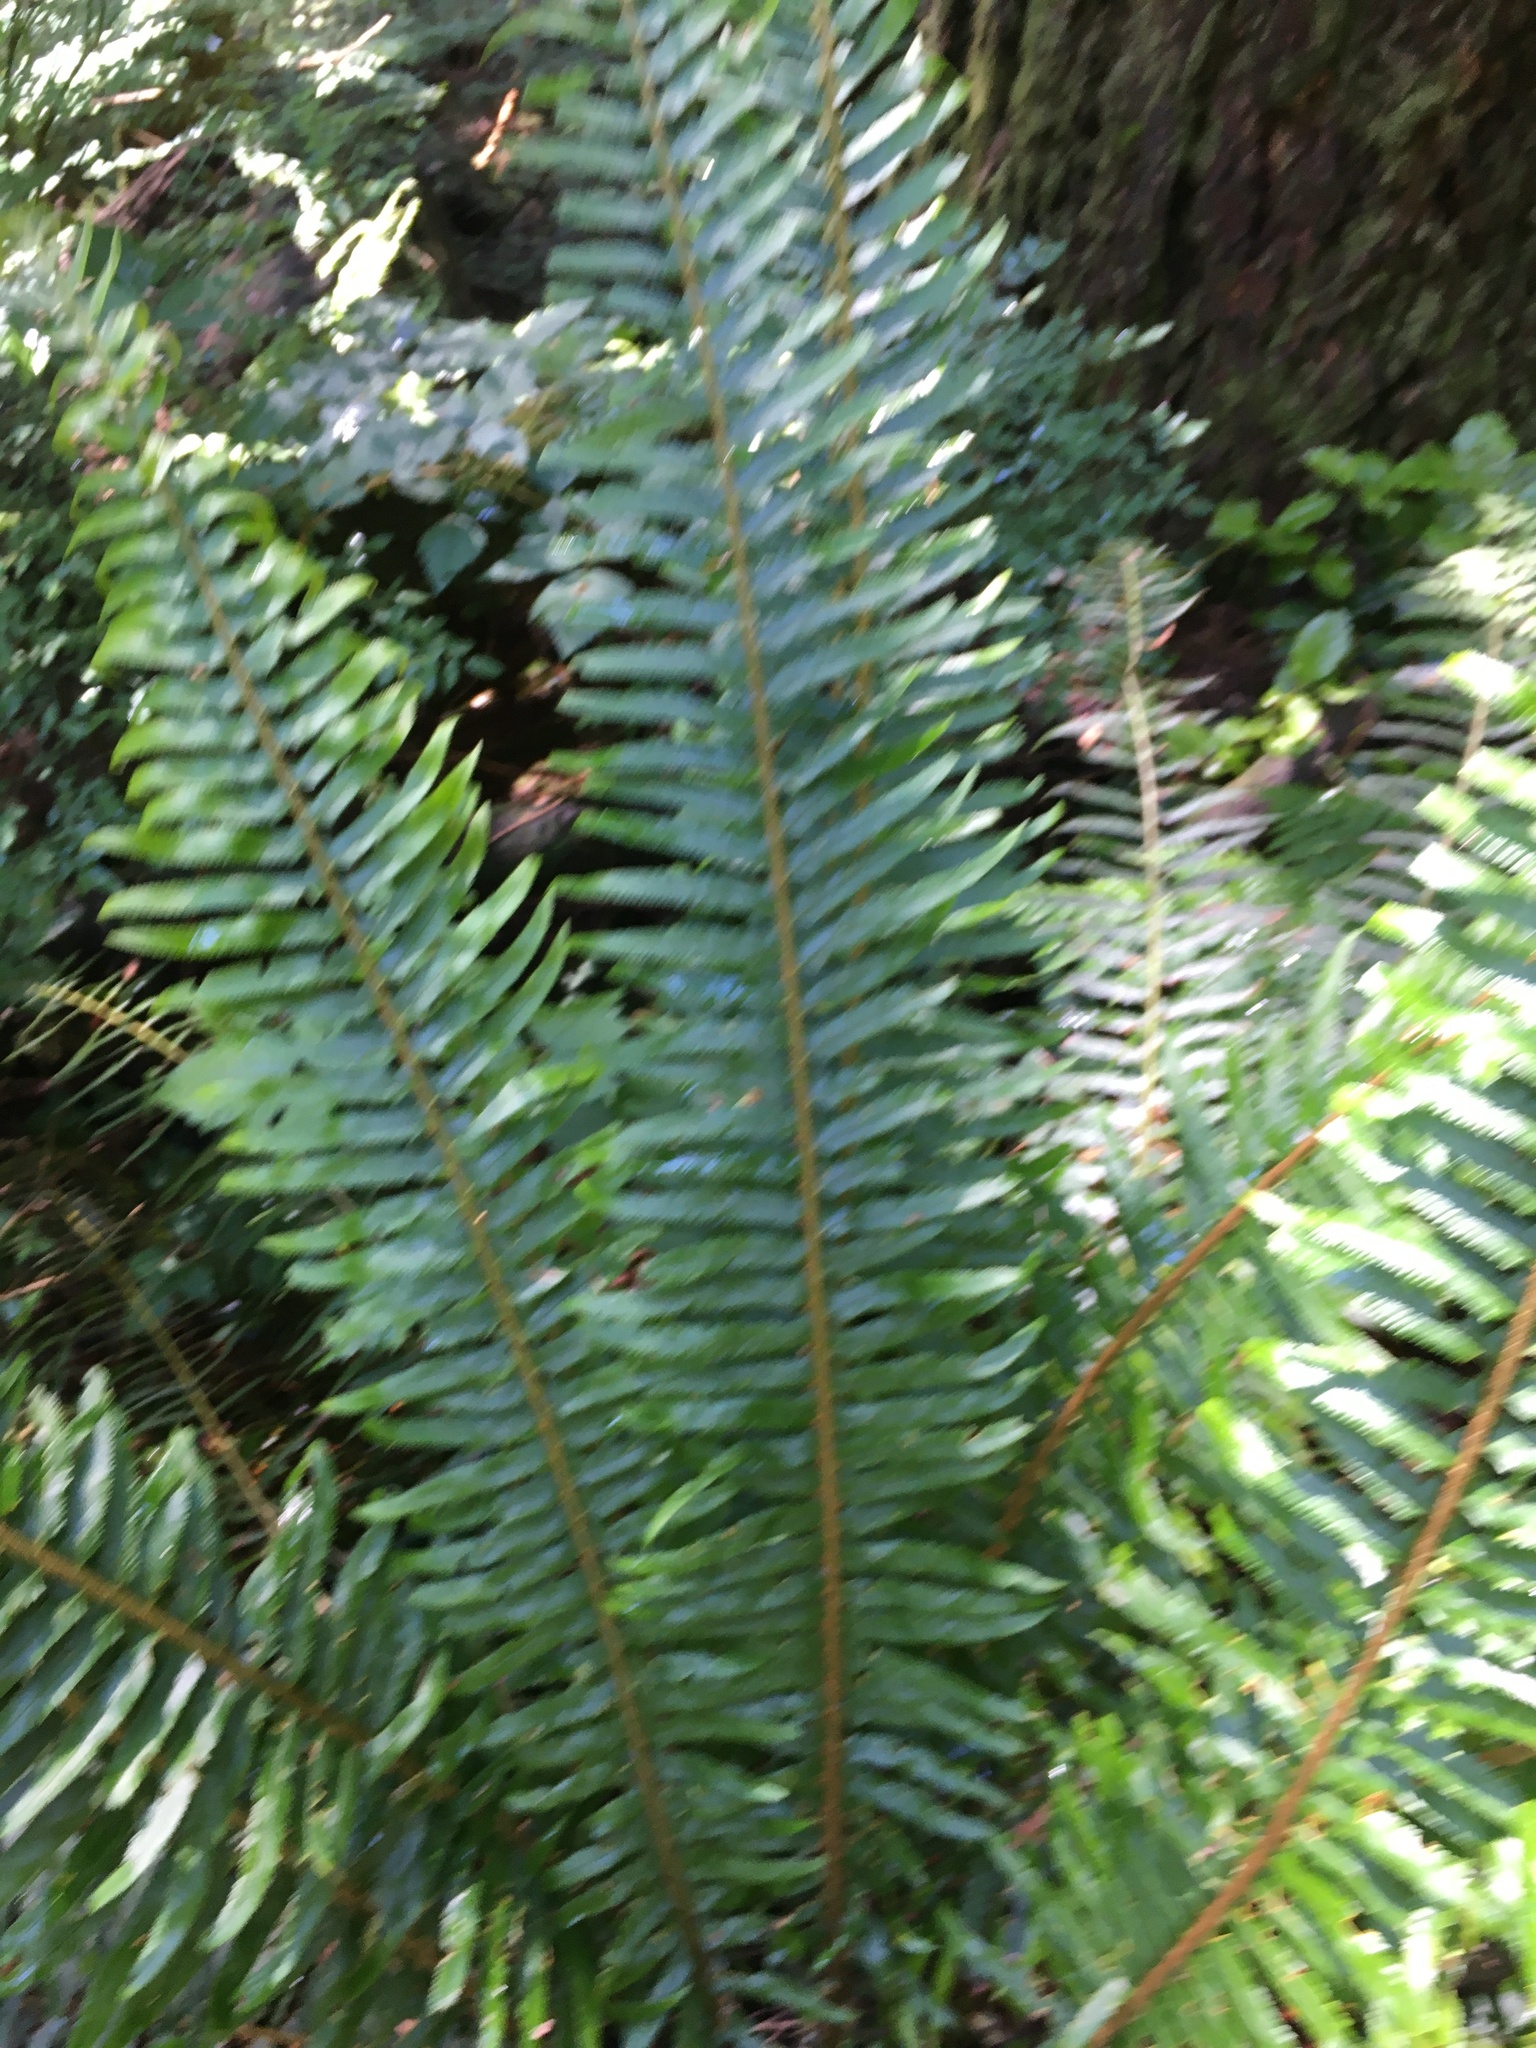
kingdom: Plantae
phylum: Tracheophyta
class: Polypodiopsida
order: Polypodiales
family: Dryopteridaceae
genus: Polystichum
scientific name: Polystichum munitum
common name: Western sword-fern
